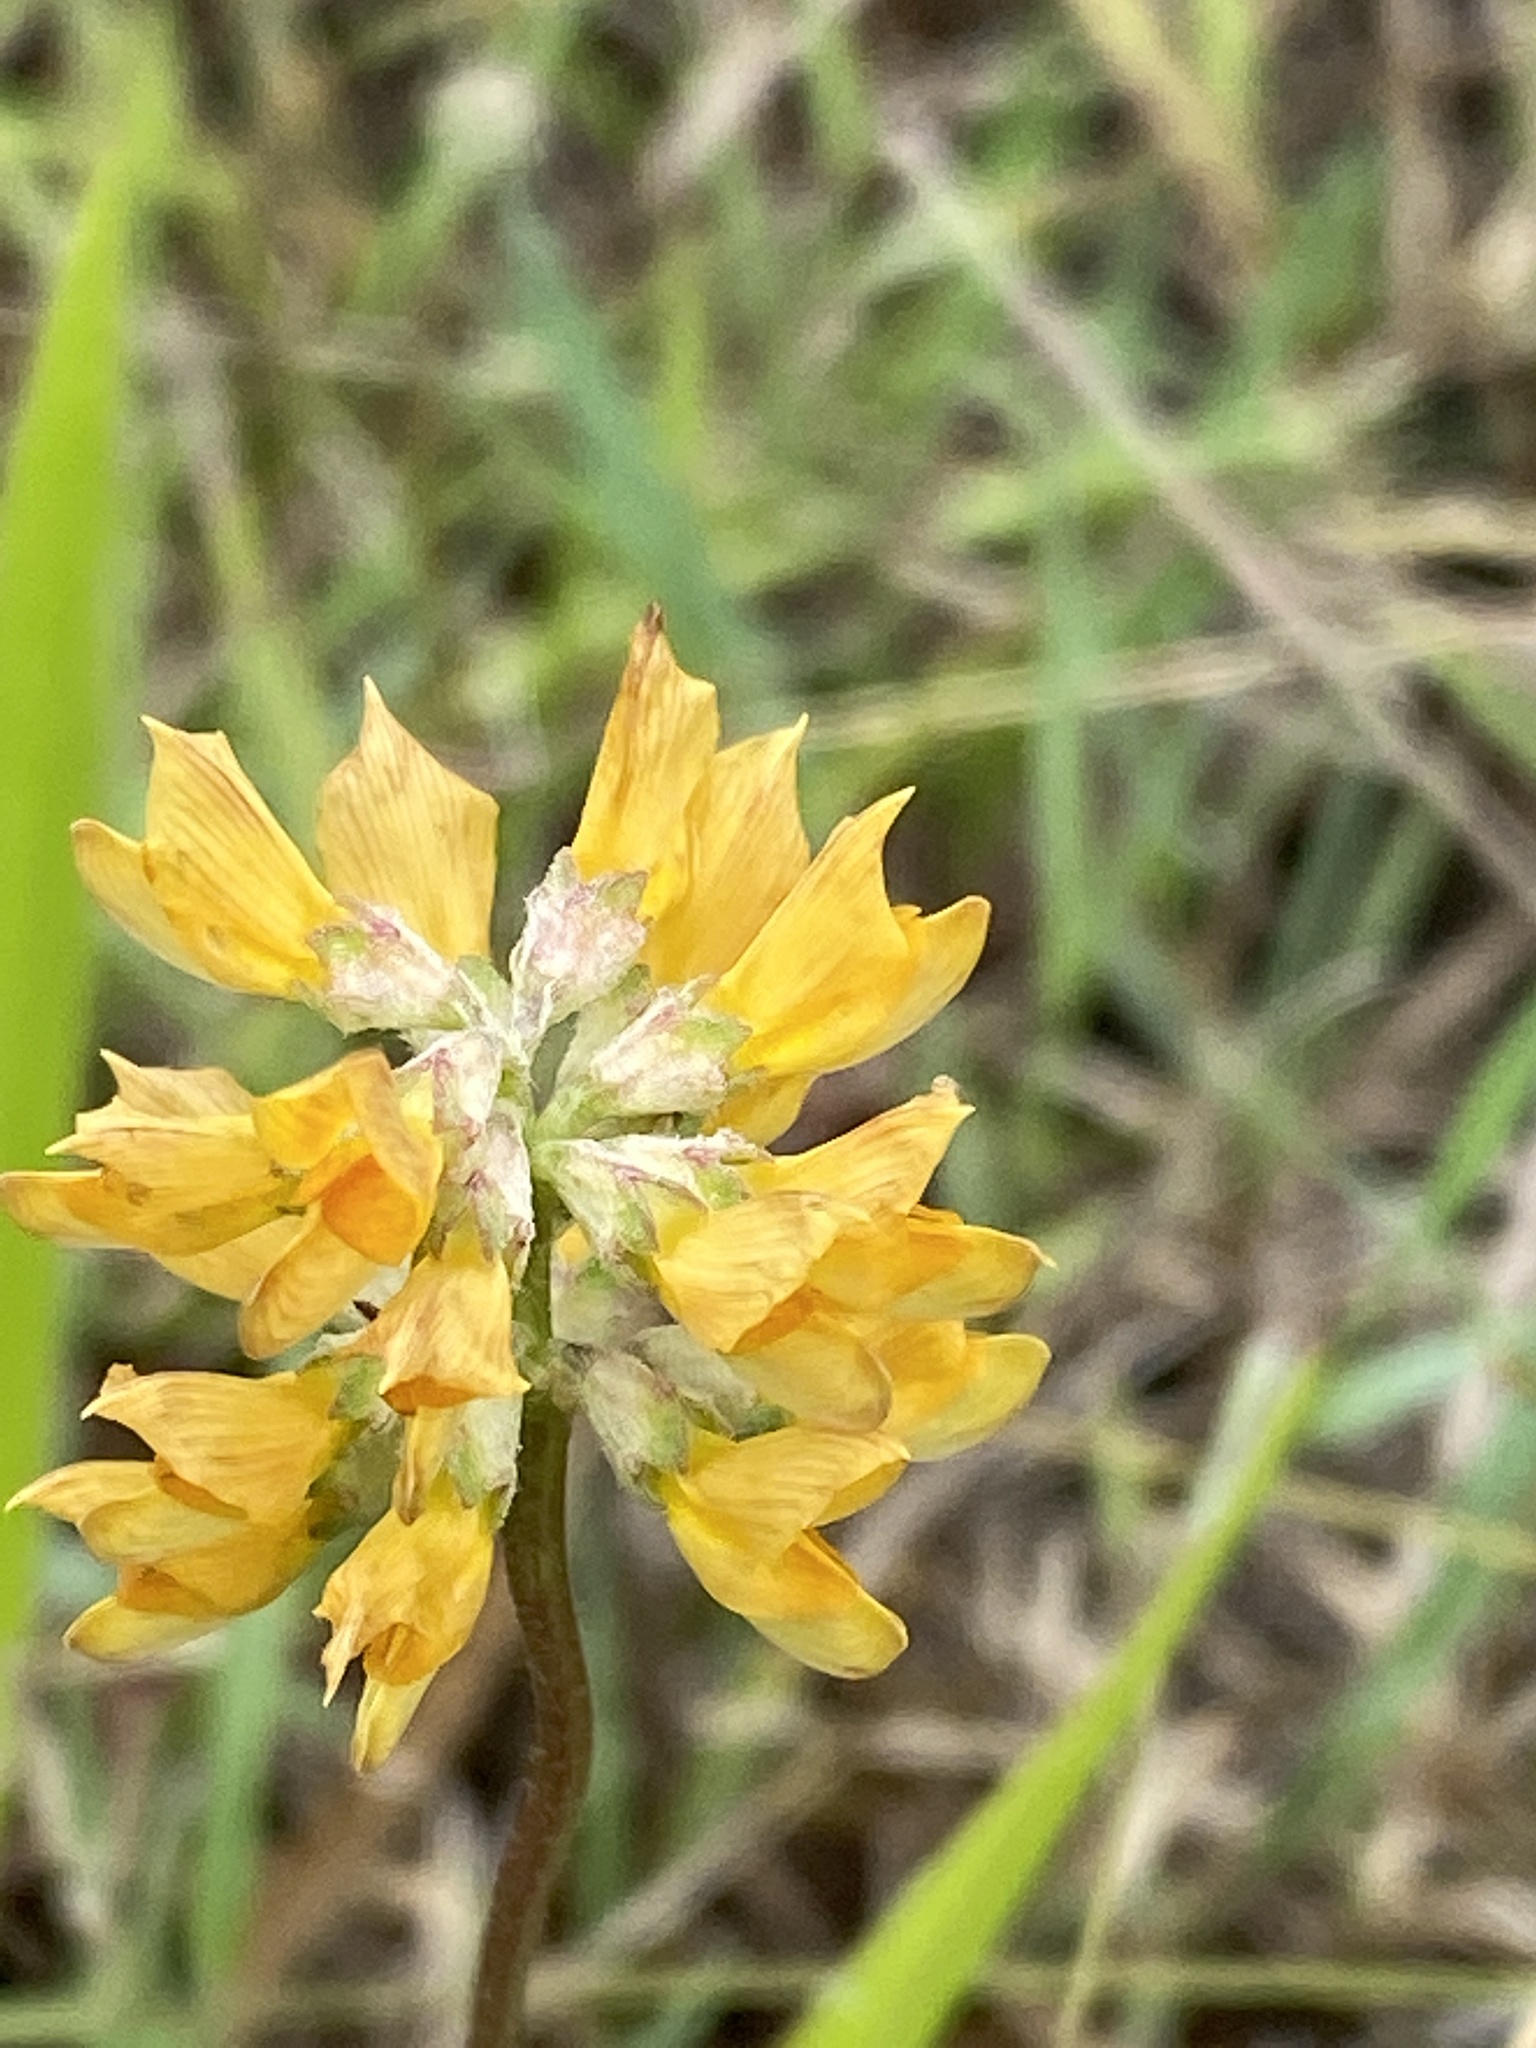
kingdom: Plantae
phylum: Tracheophyta
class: Magnoliopsida
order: Fabales
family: Fabaceae
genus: Listia
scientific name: Listia bainesii
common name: Lotononis
